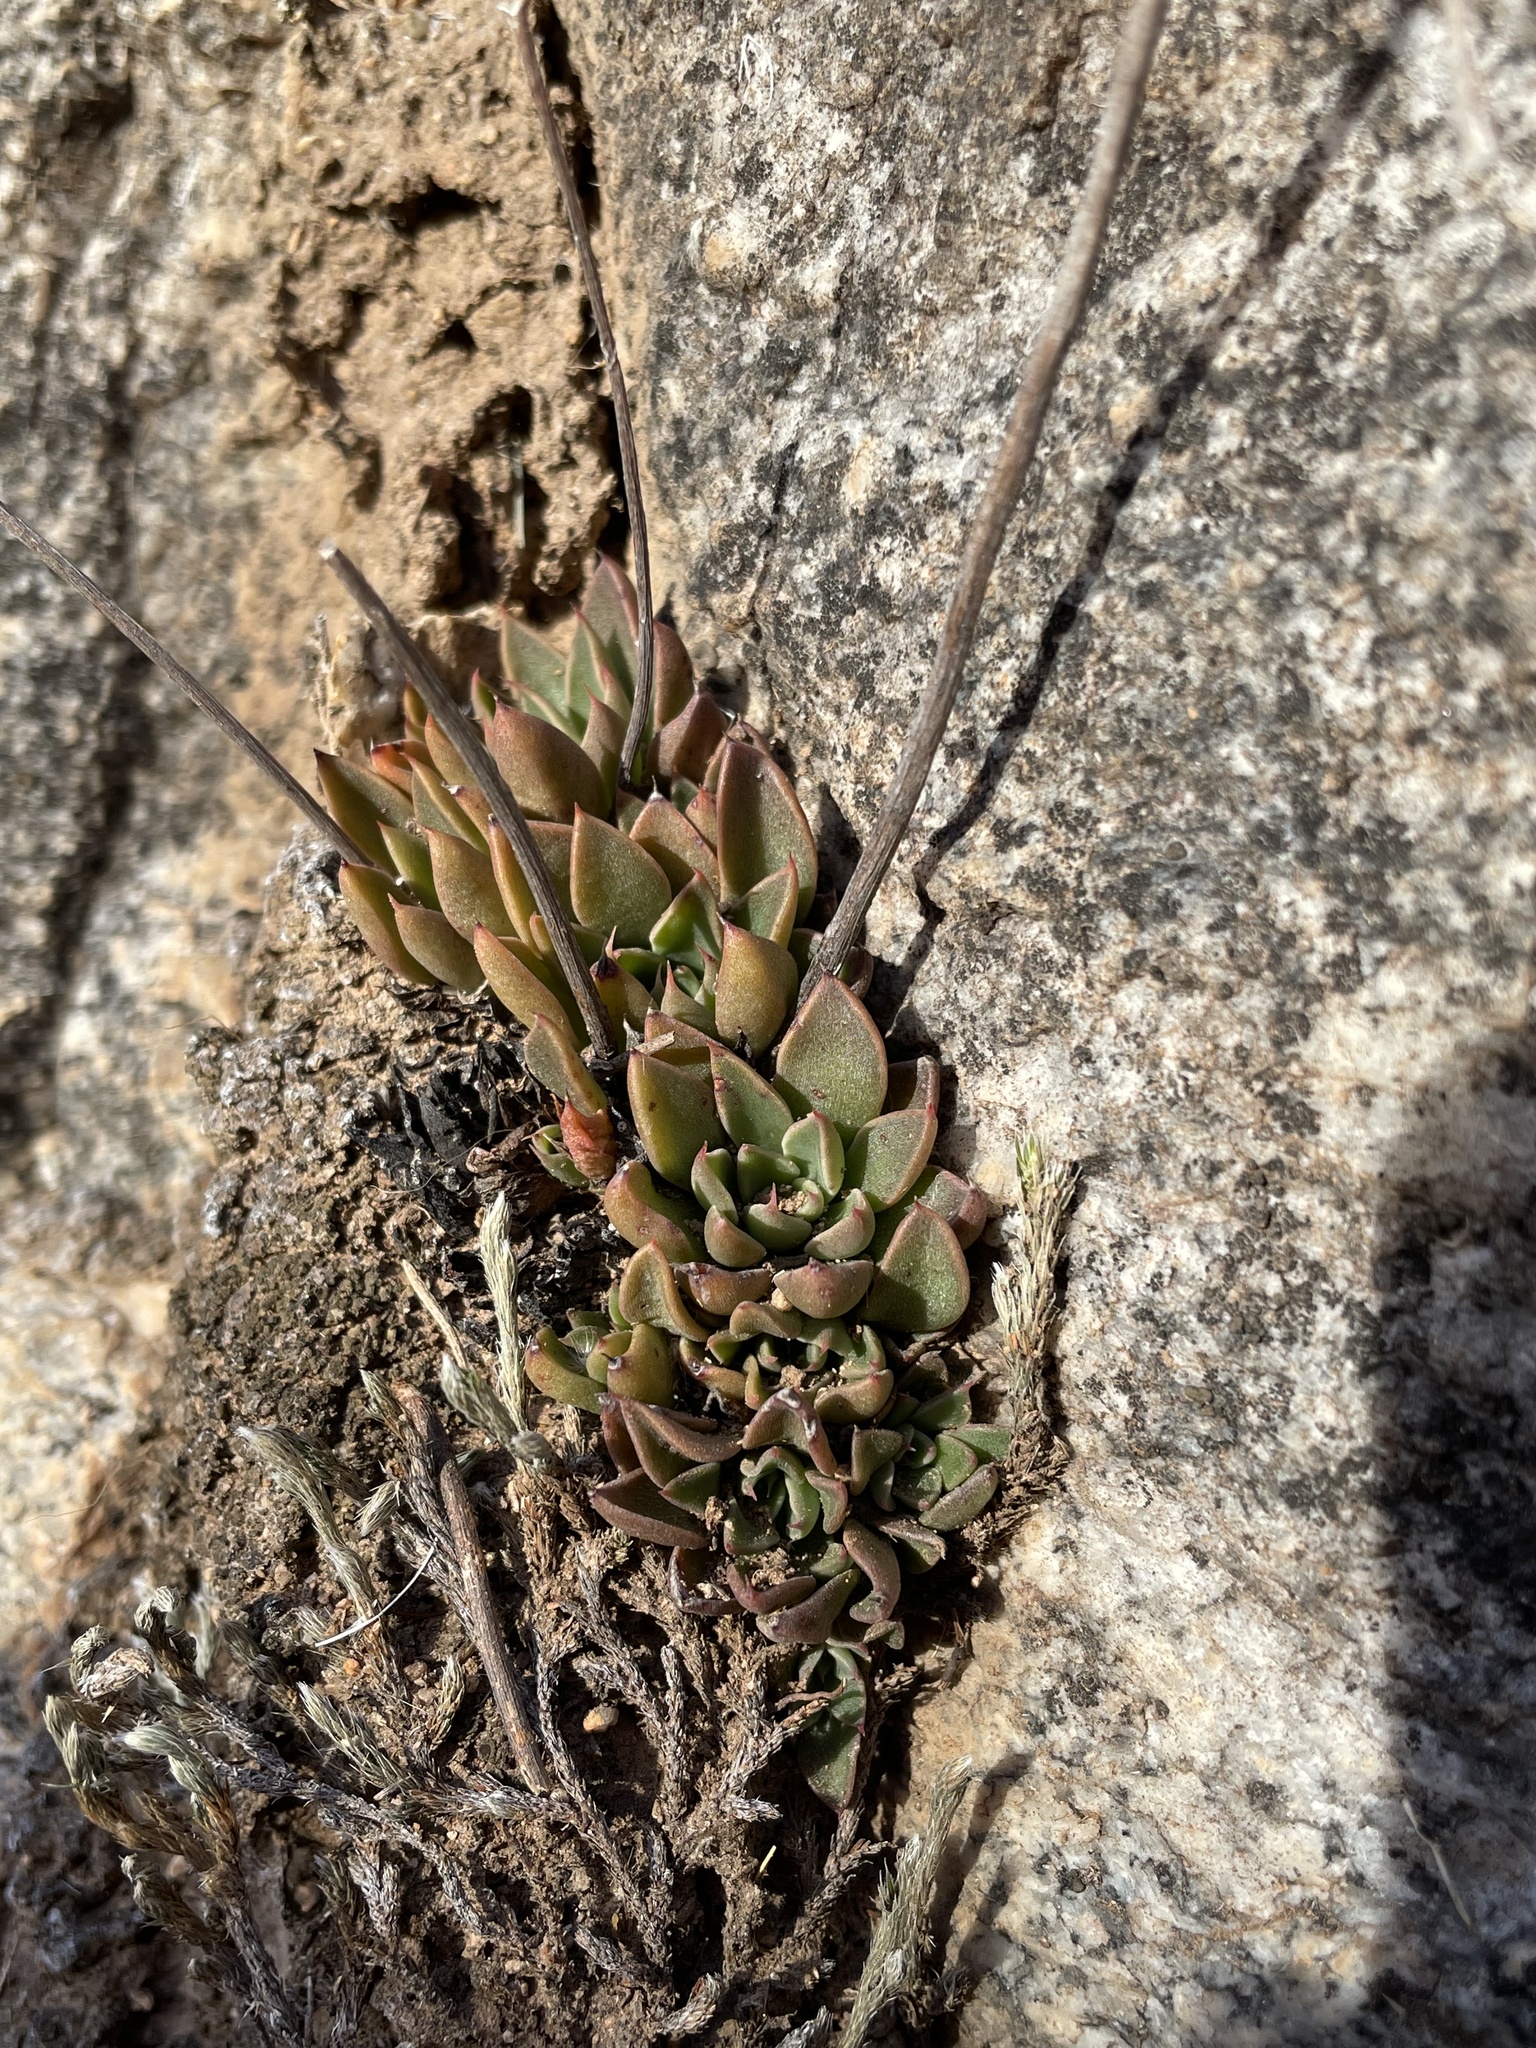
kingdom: Plantae
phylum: Tracheophyta
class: Magnoliopsida
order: Saxifragales
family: Crassulaceae
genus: Graptopetalum
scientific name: Graptopetalum rusbyi
